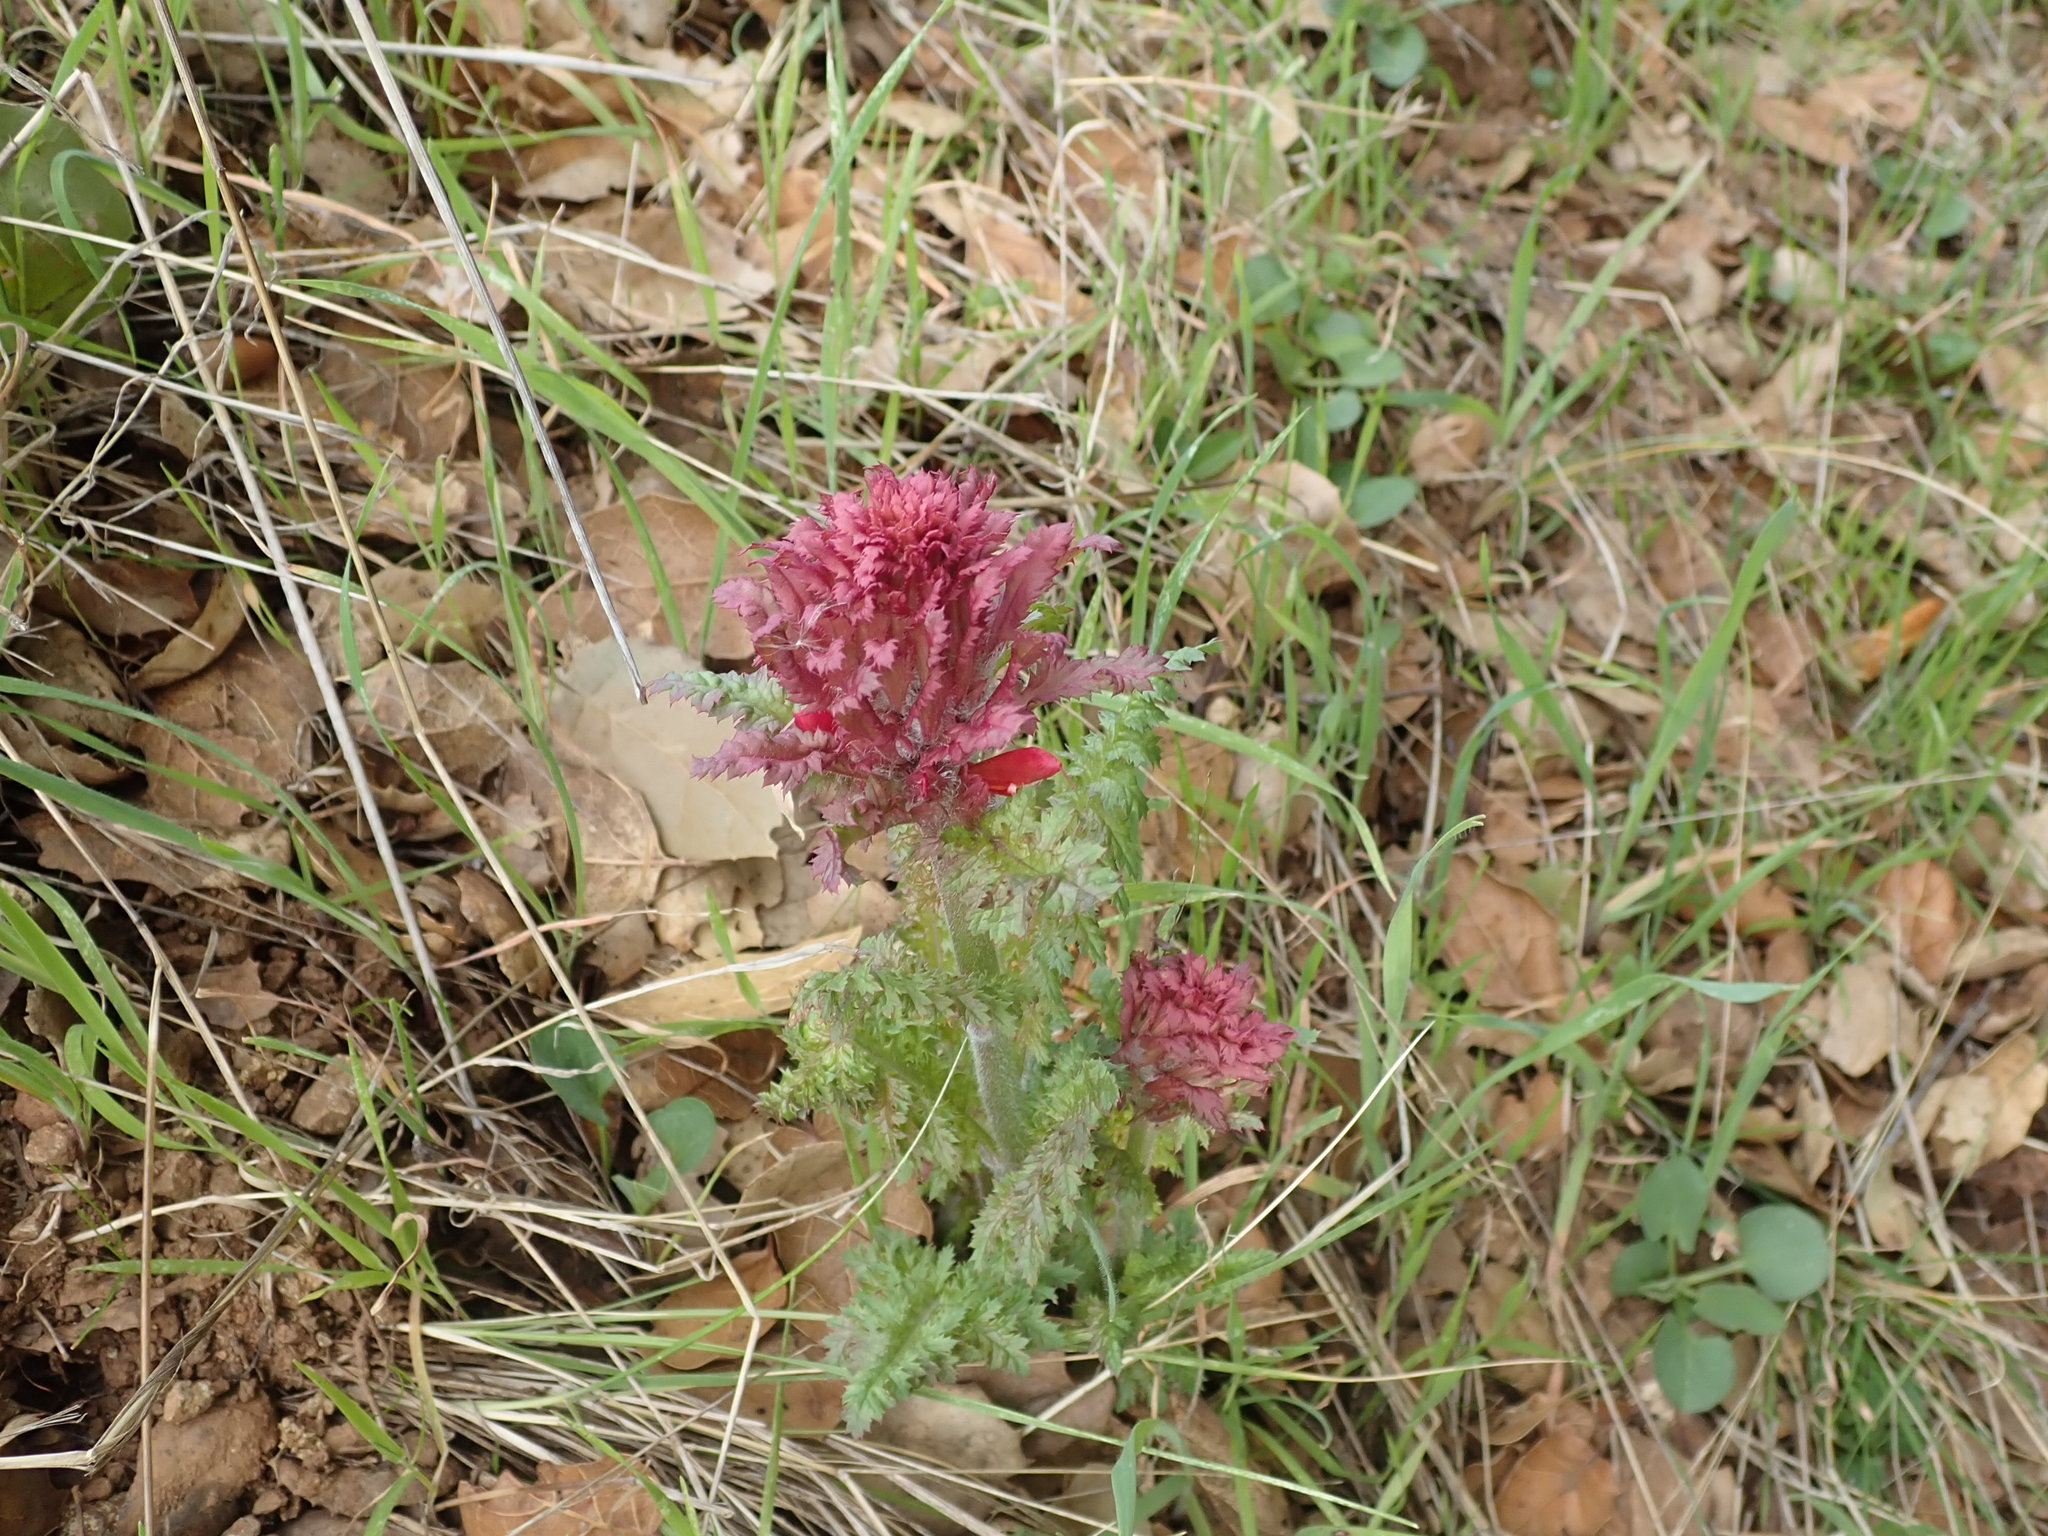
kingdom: Plantae
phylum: Tracheophyta
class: Magnoliopsida
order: Lamiales
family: Orobanchaceae
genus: Pedicularis
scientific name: Pedicularis densiflora
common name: Indian warrior
